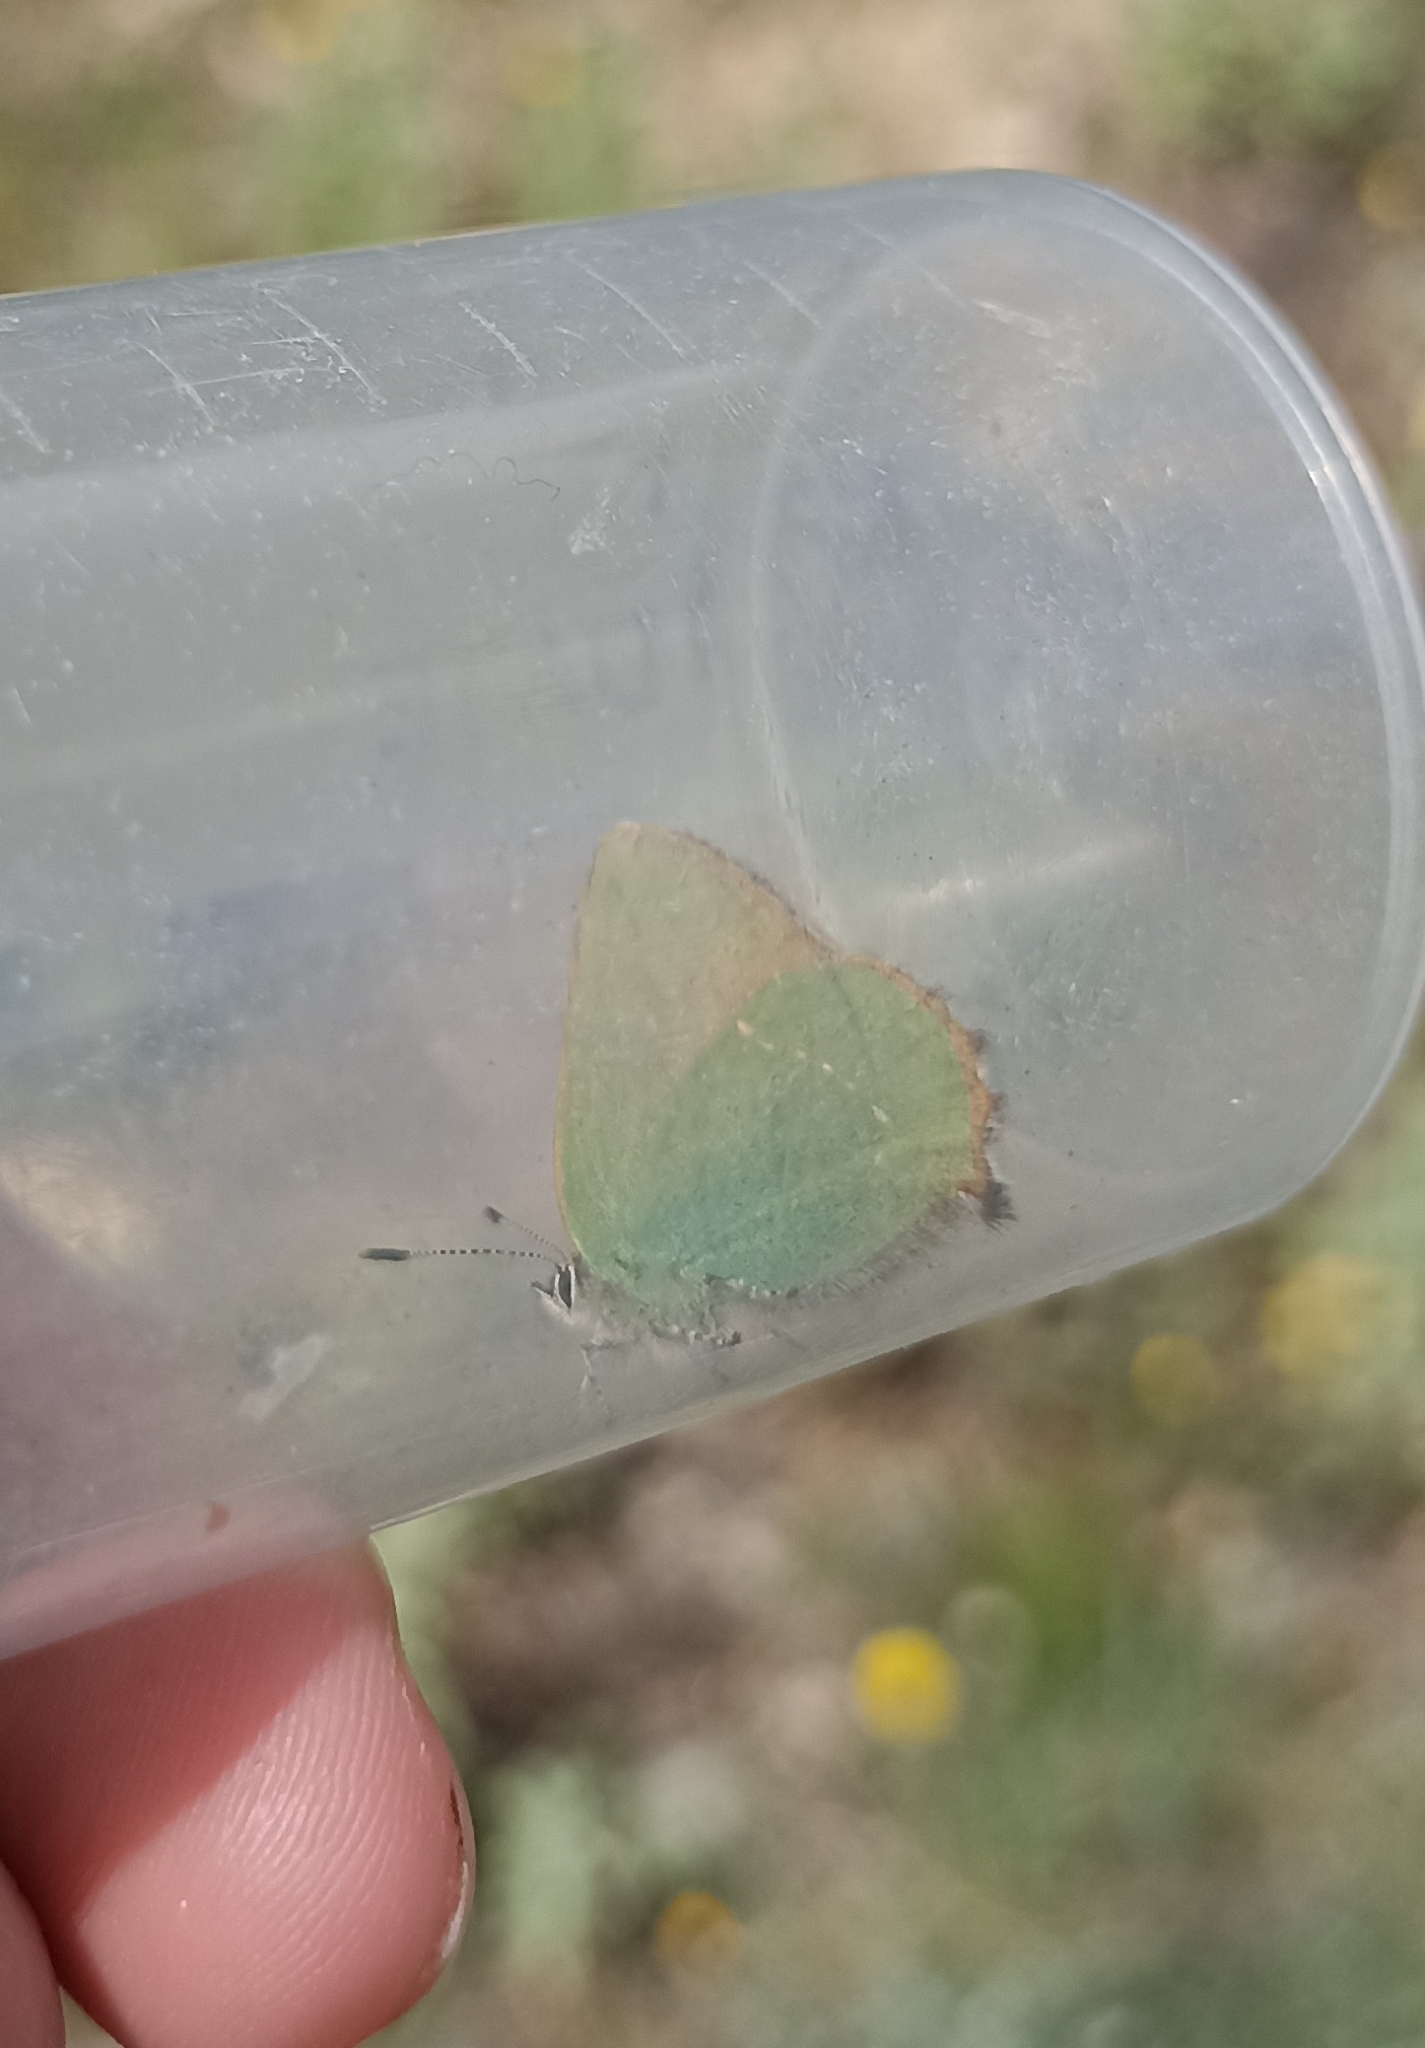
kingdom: Animalia
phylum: Arthropoda
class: Insecta
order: Lepidoptera
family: Lycaenidae
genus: Callophrys
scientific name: Callophrys rubi
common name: Green hairstreak
